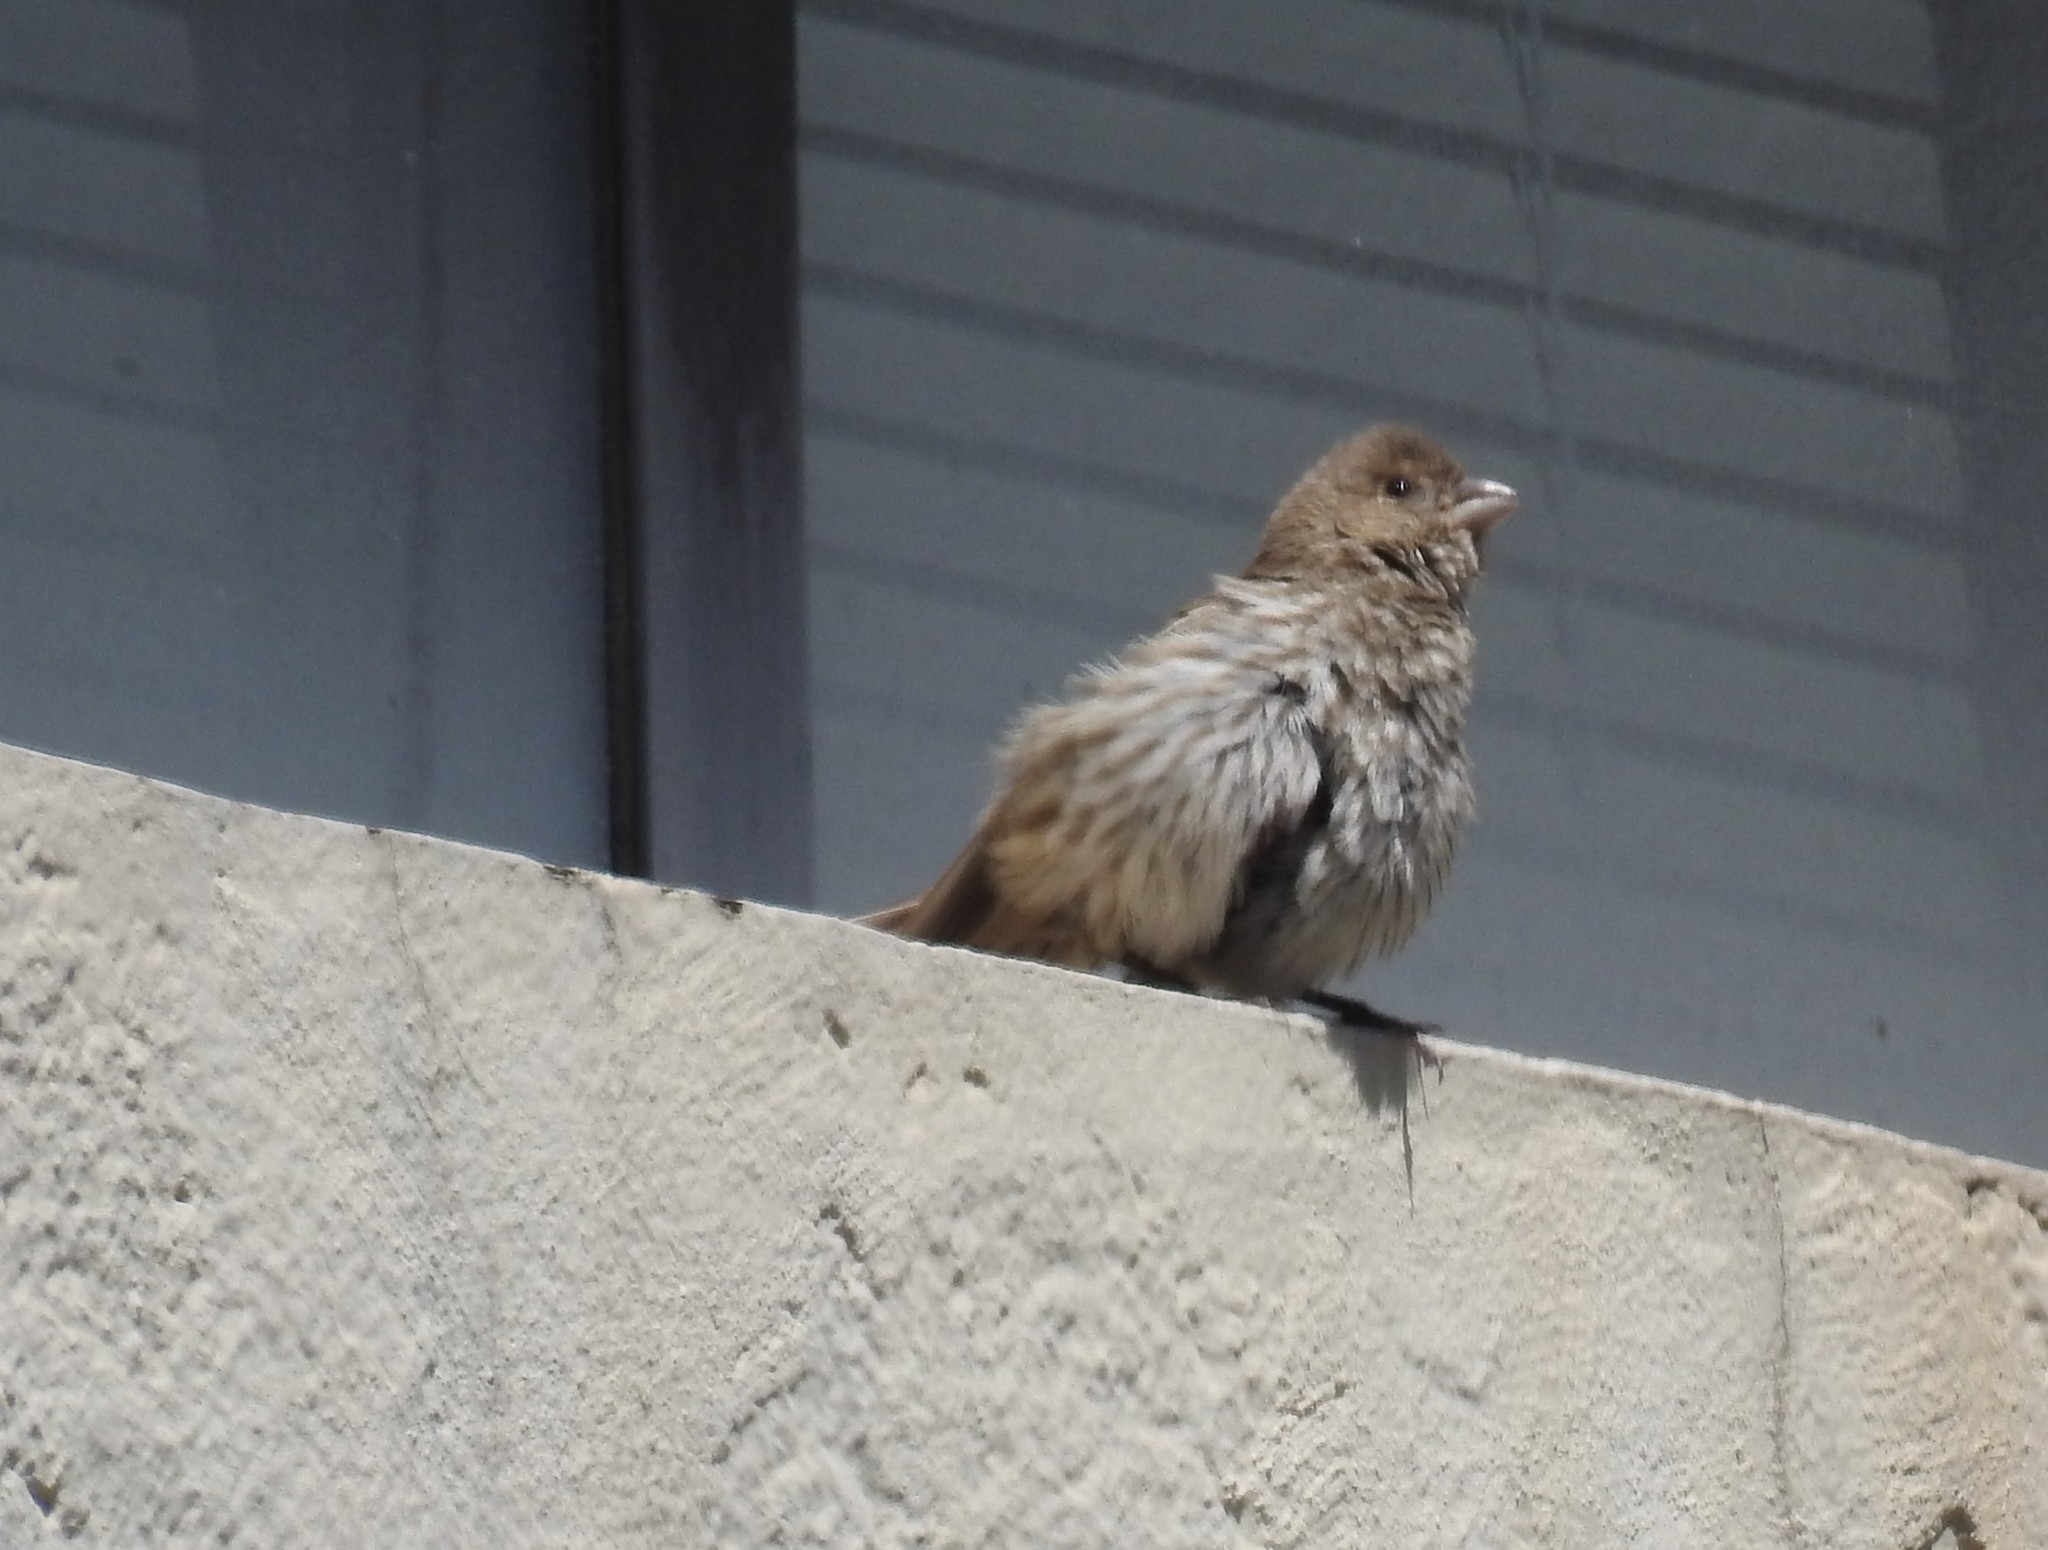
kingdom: Animalia
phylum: Chordata
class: Aves
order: Passeriformes
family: Passerellidae
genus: Melozone
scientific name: Melozone crissalis
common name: California towhee
